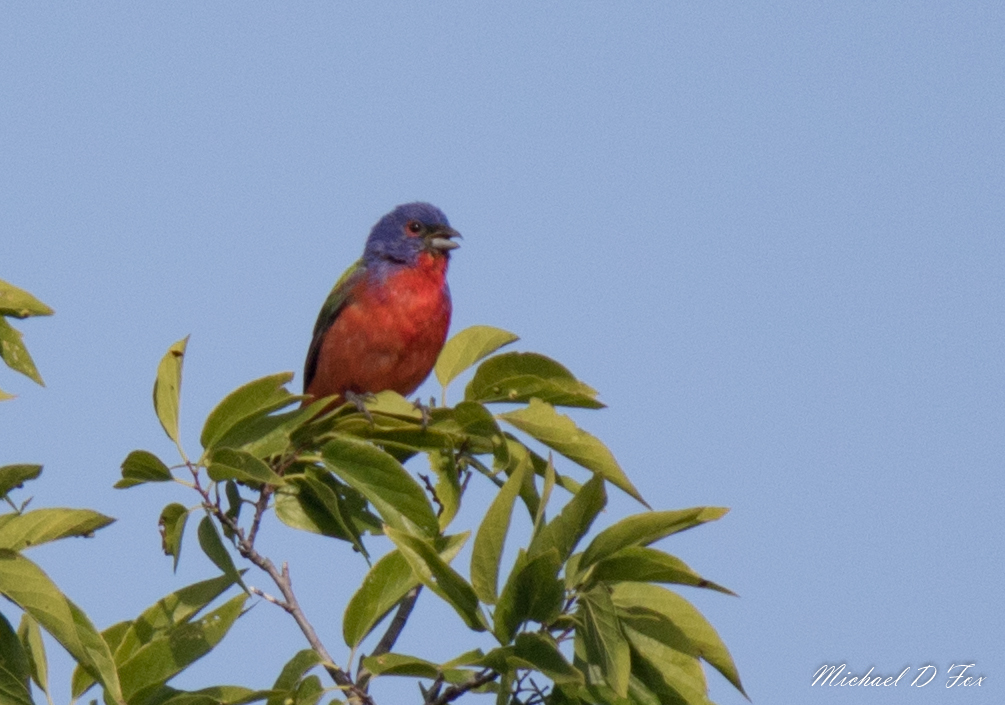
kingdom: Animalia
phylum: Chordata
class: Aves
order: Passeriformes
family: Cardinalidae
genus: Passerina
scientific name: Passerina ciris
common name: Painted bunting
